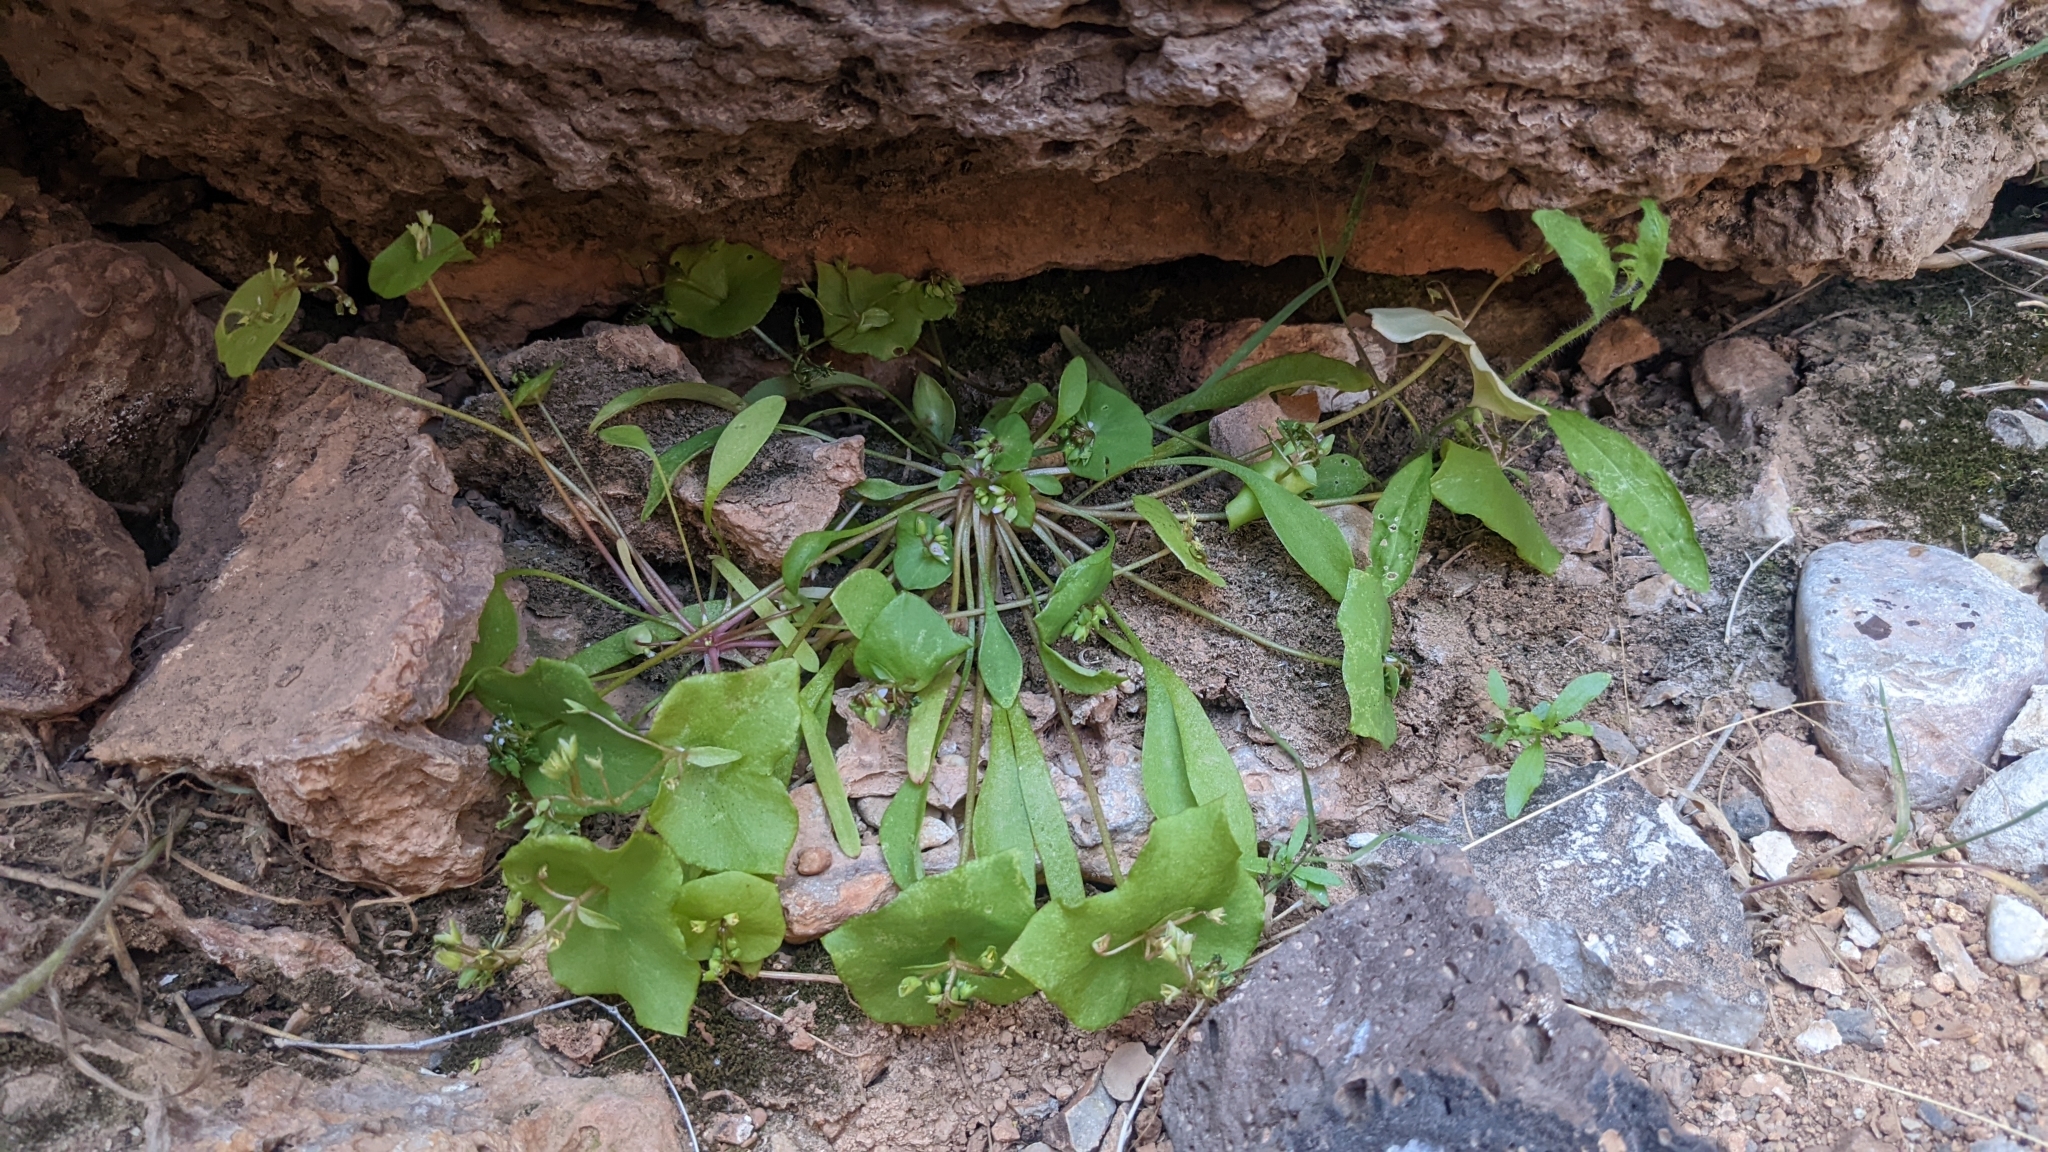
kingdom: Plantae
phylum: Tracheophyta
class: Magnoliopsida
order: Caryophyllales
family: Montiaceae
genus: Claytonia
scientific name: Claytonia perfoliata
